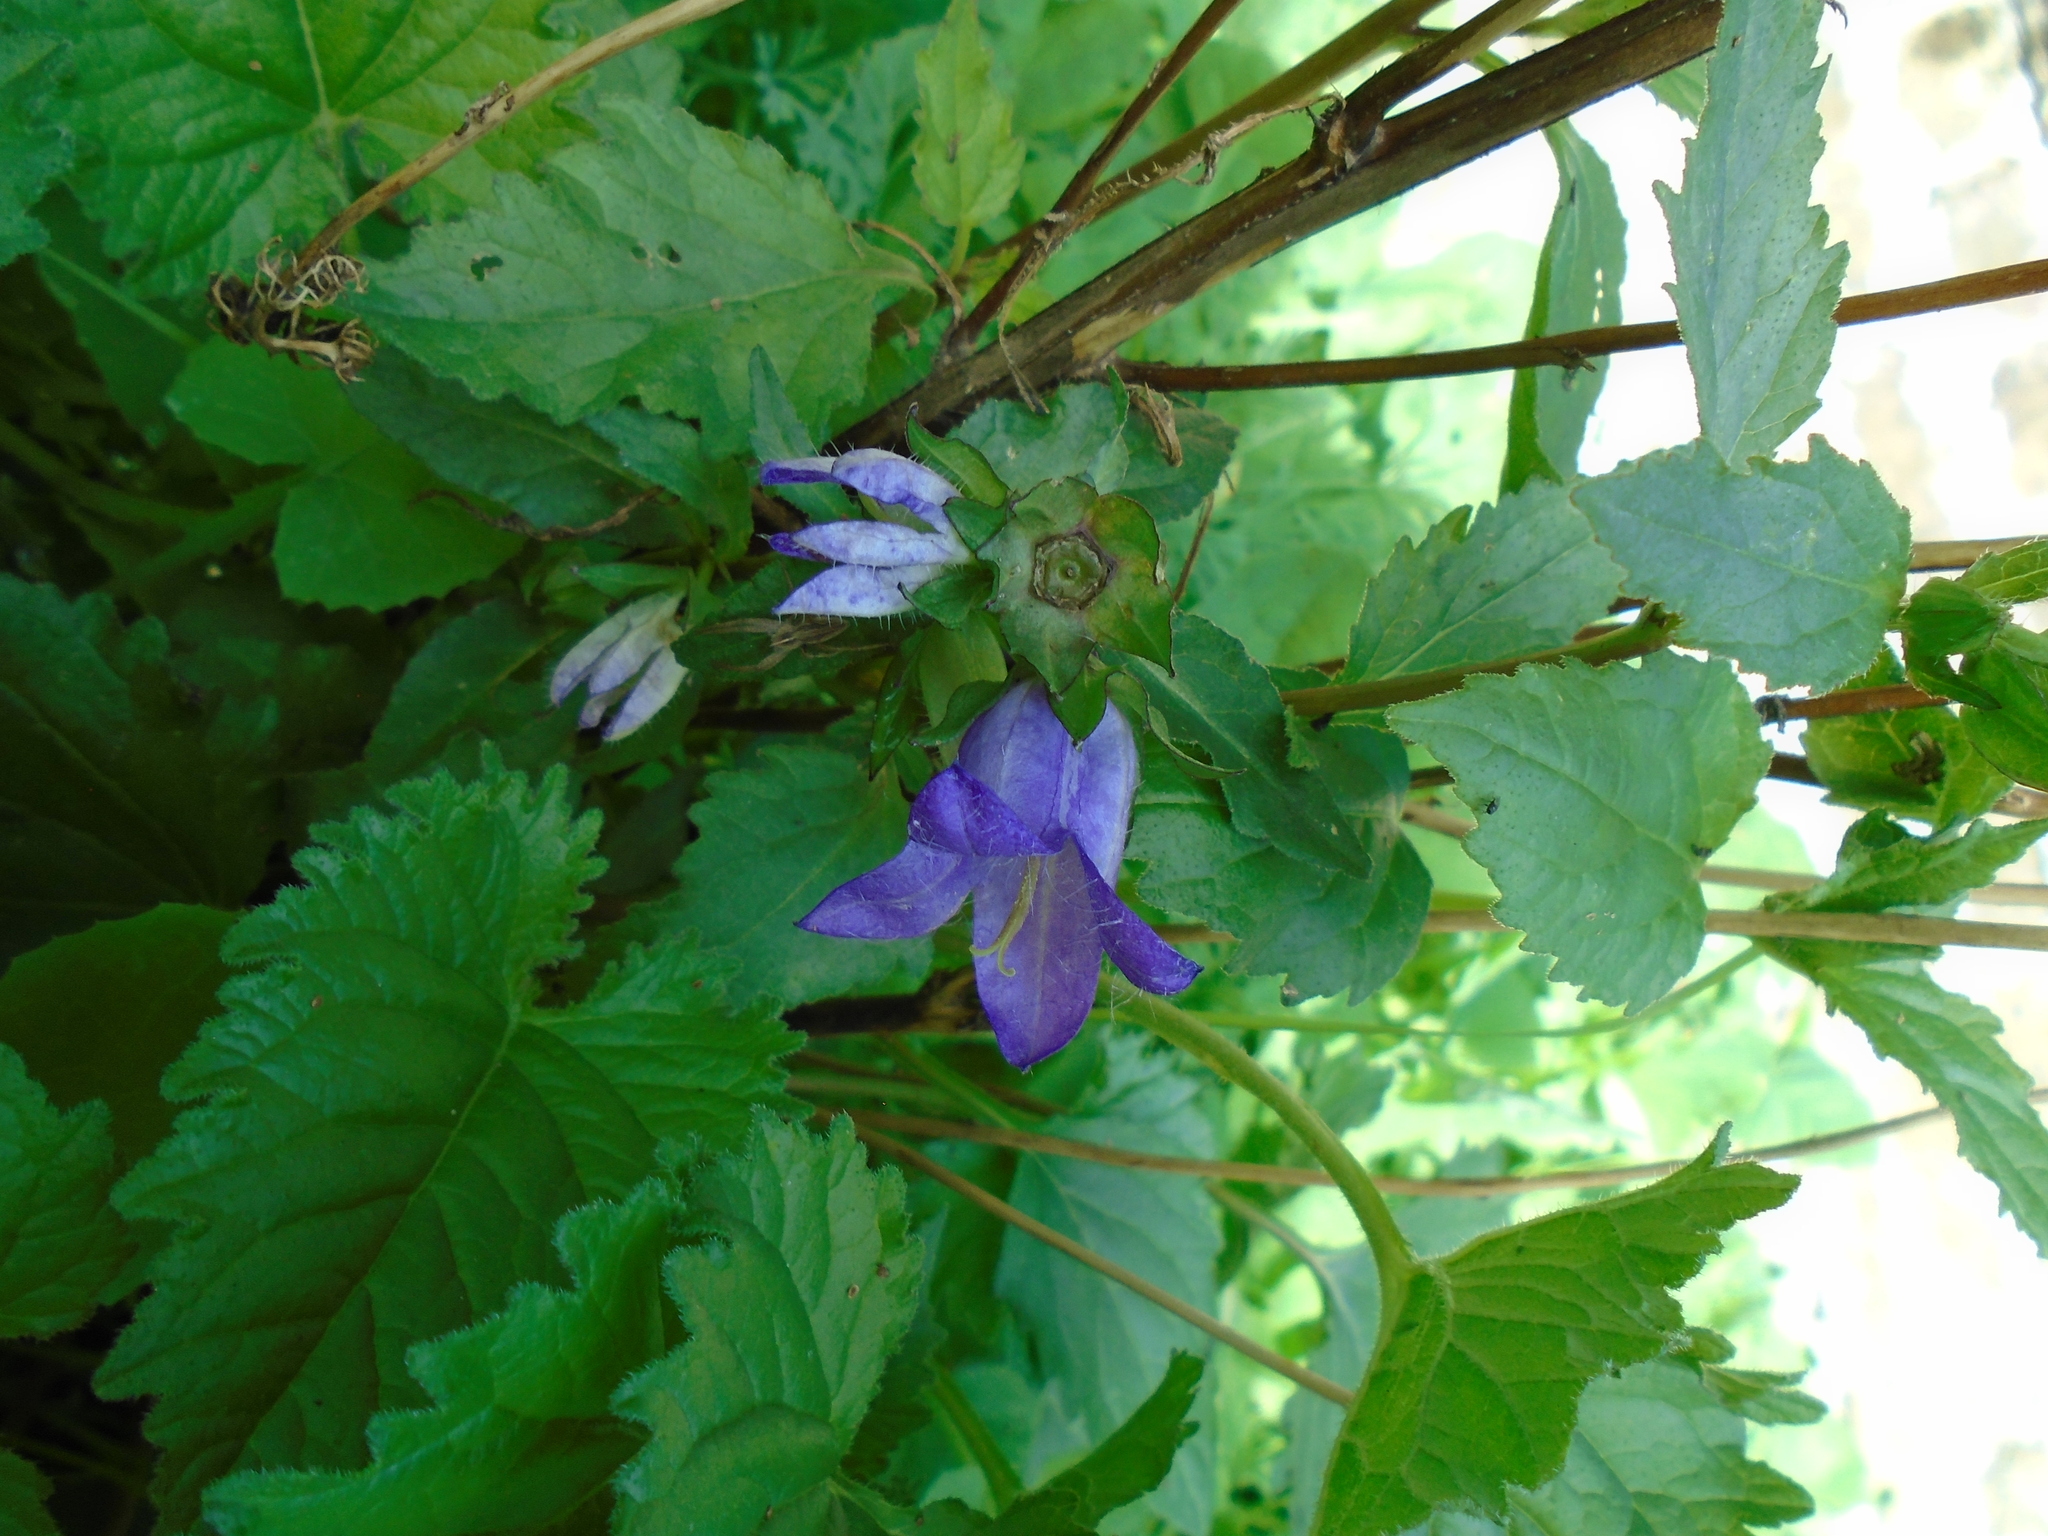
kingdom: Plantae
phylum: Tracheophyta
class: Magnoliopsida
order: Asterales
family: Campanulaceae
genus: Campanula
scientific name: Campanula trachelium
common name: Nettle-leaved bellflower
